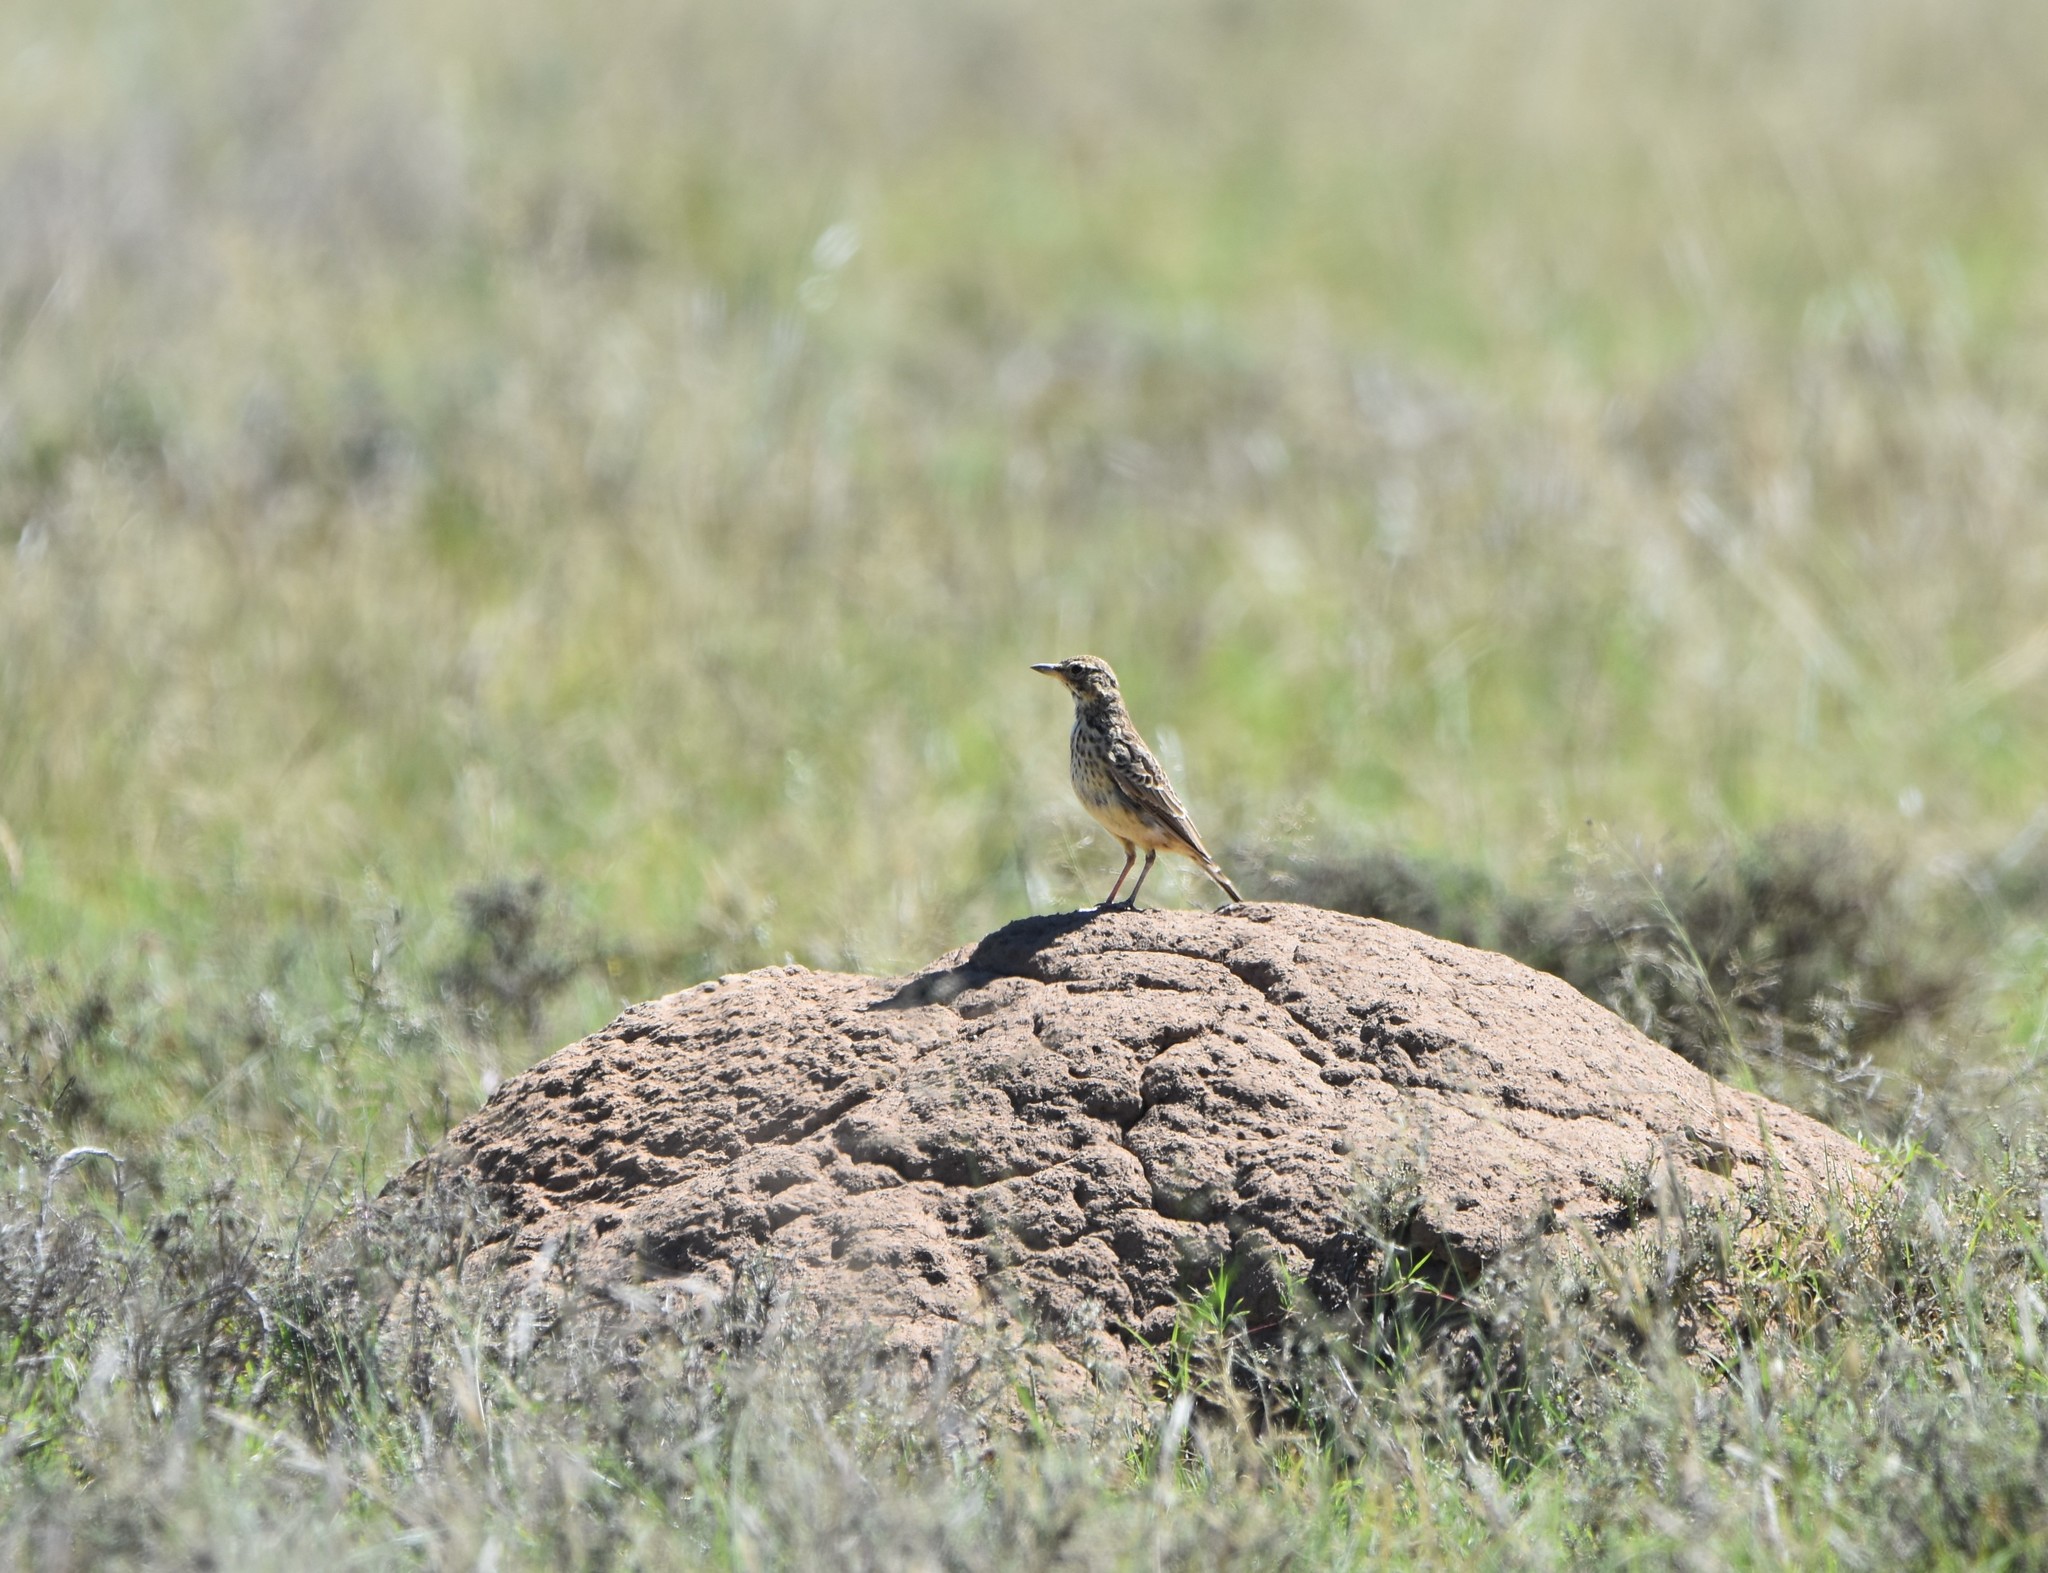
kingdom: Animalia
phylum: Chordata
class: Aves
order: Passeriformes
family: Alaudidae
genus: Galerida
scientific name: Galerida magnirostris
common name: Large-billed lark
